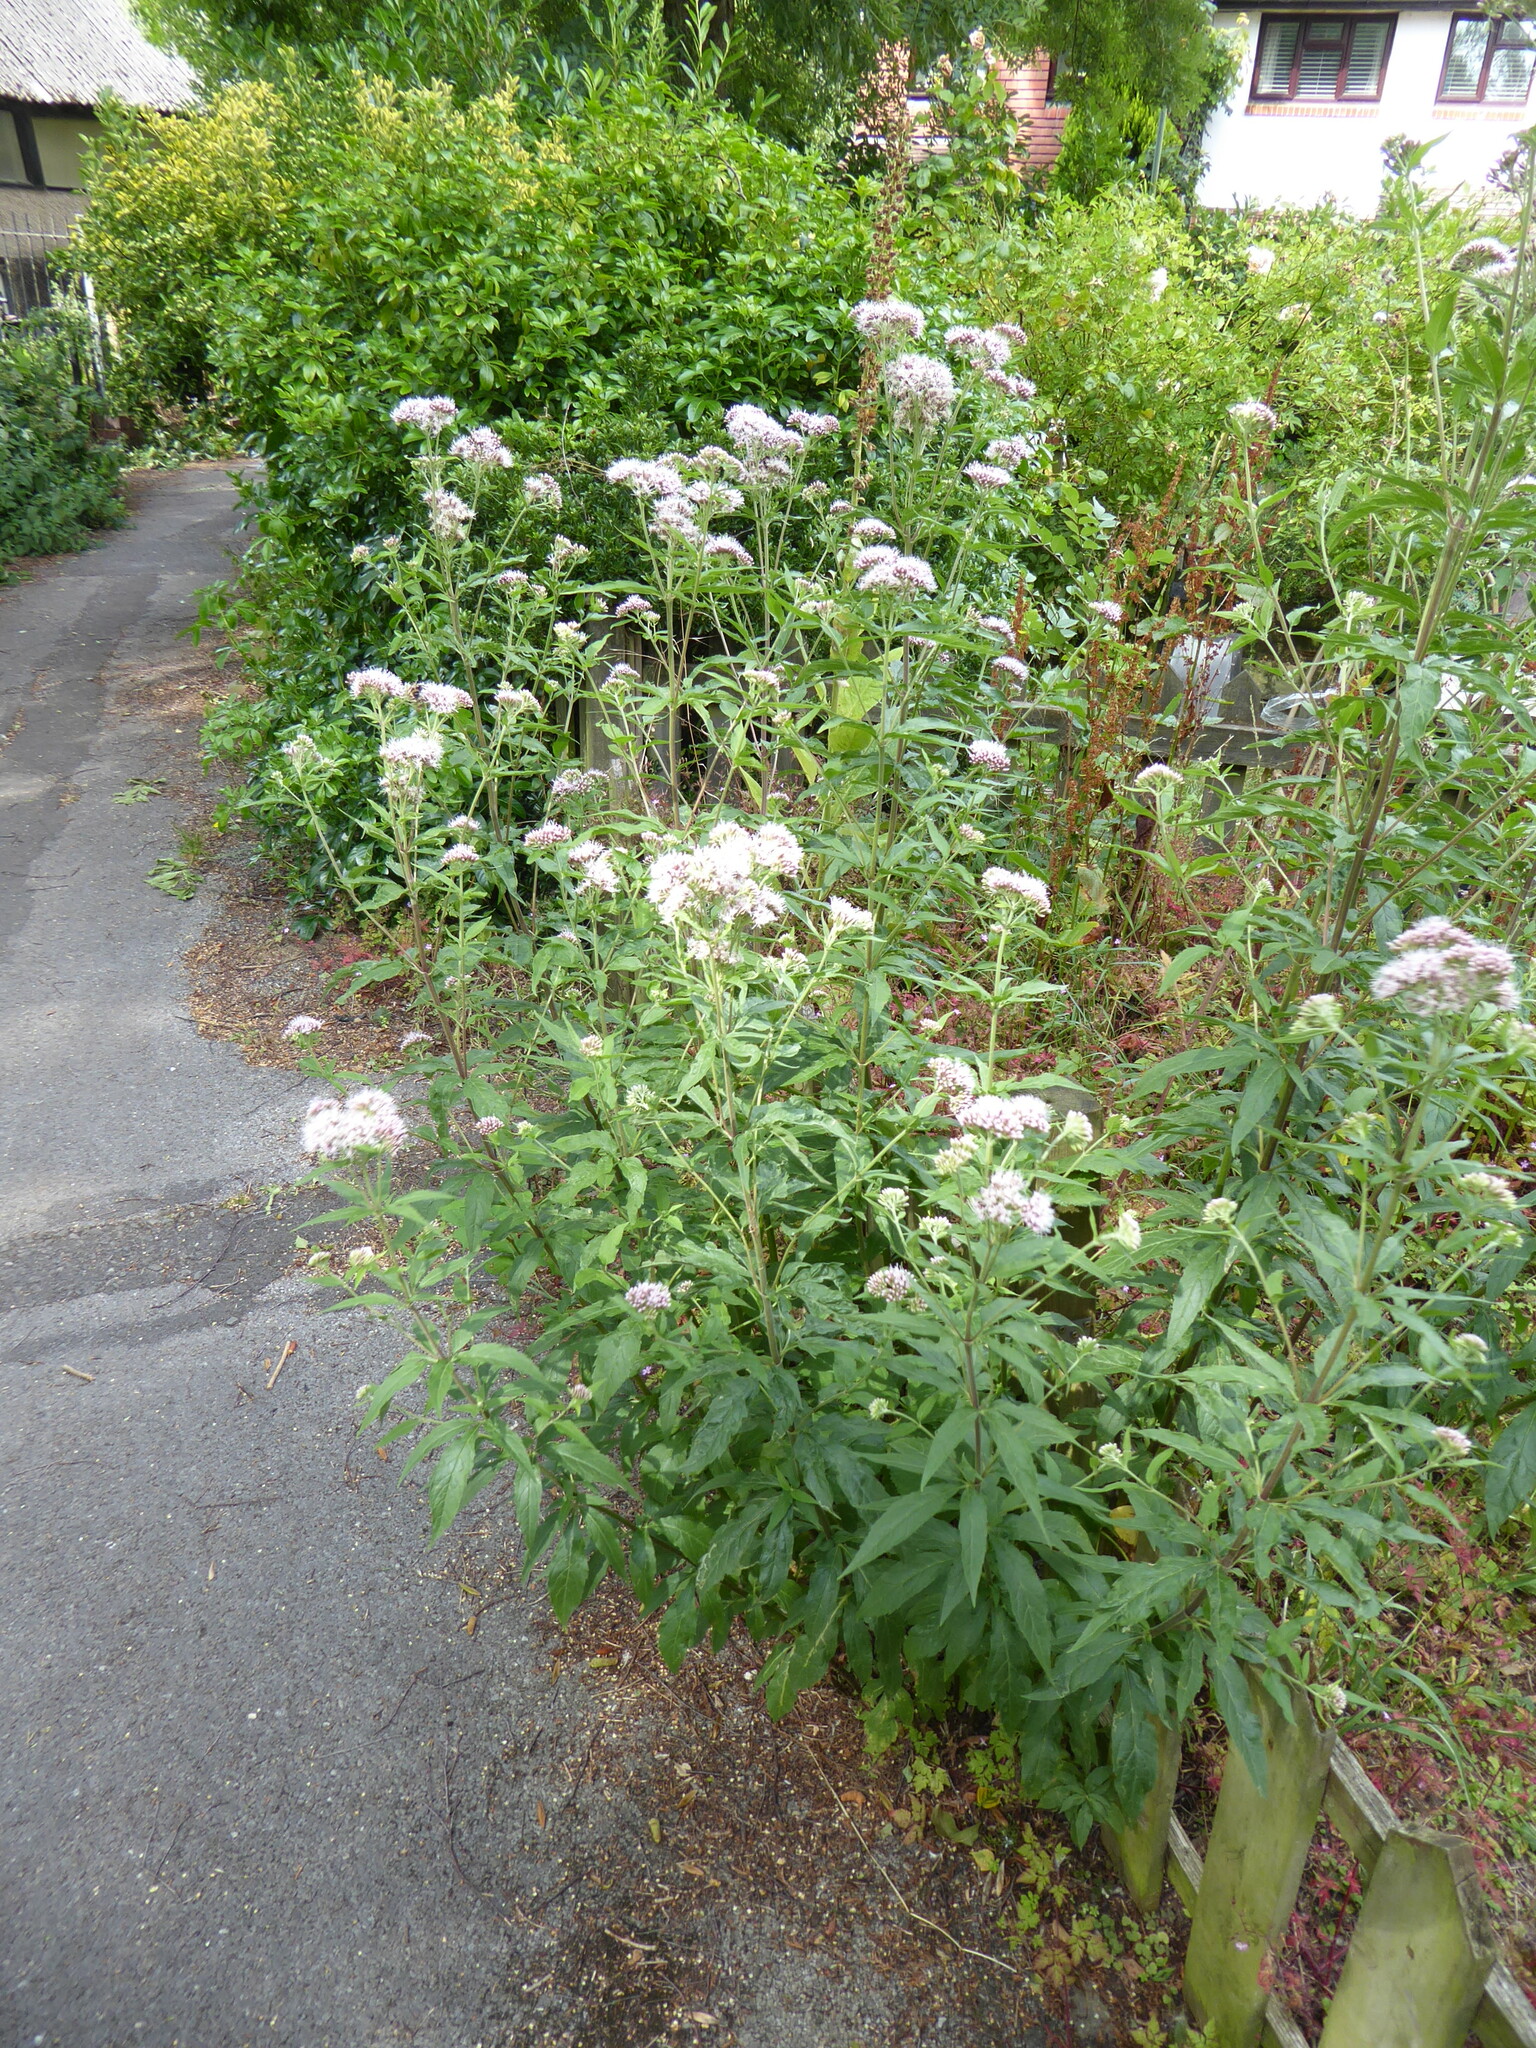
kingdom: Plantae
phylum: Tracheophyta
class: Magnoliopsida
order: Asterales
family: Asteraceae
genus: Eupatorium
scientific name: Eupatorium cannabinum
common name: Hemp-agrimony
